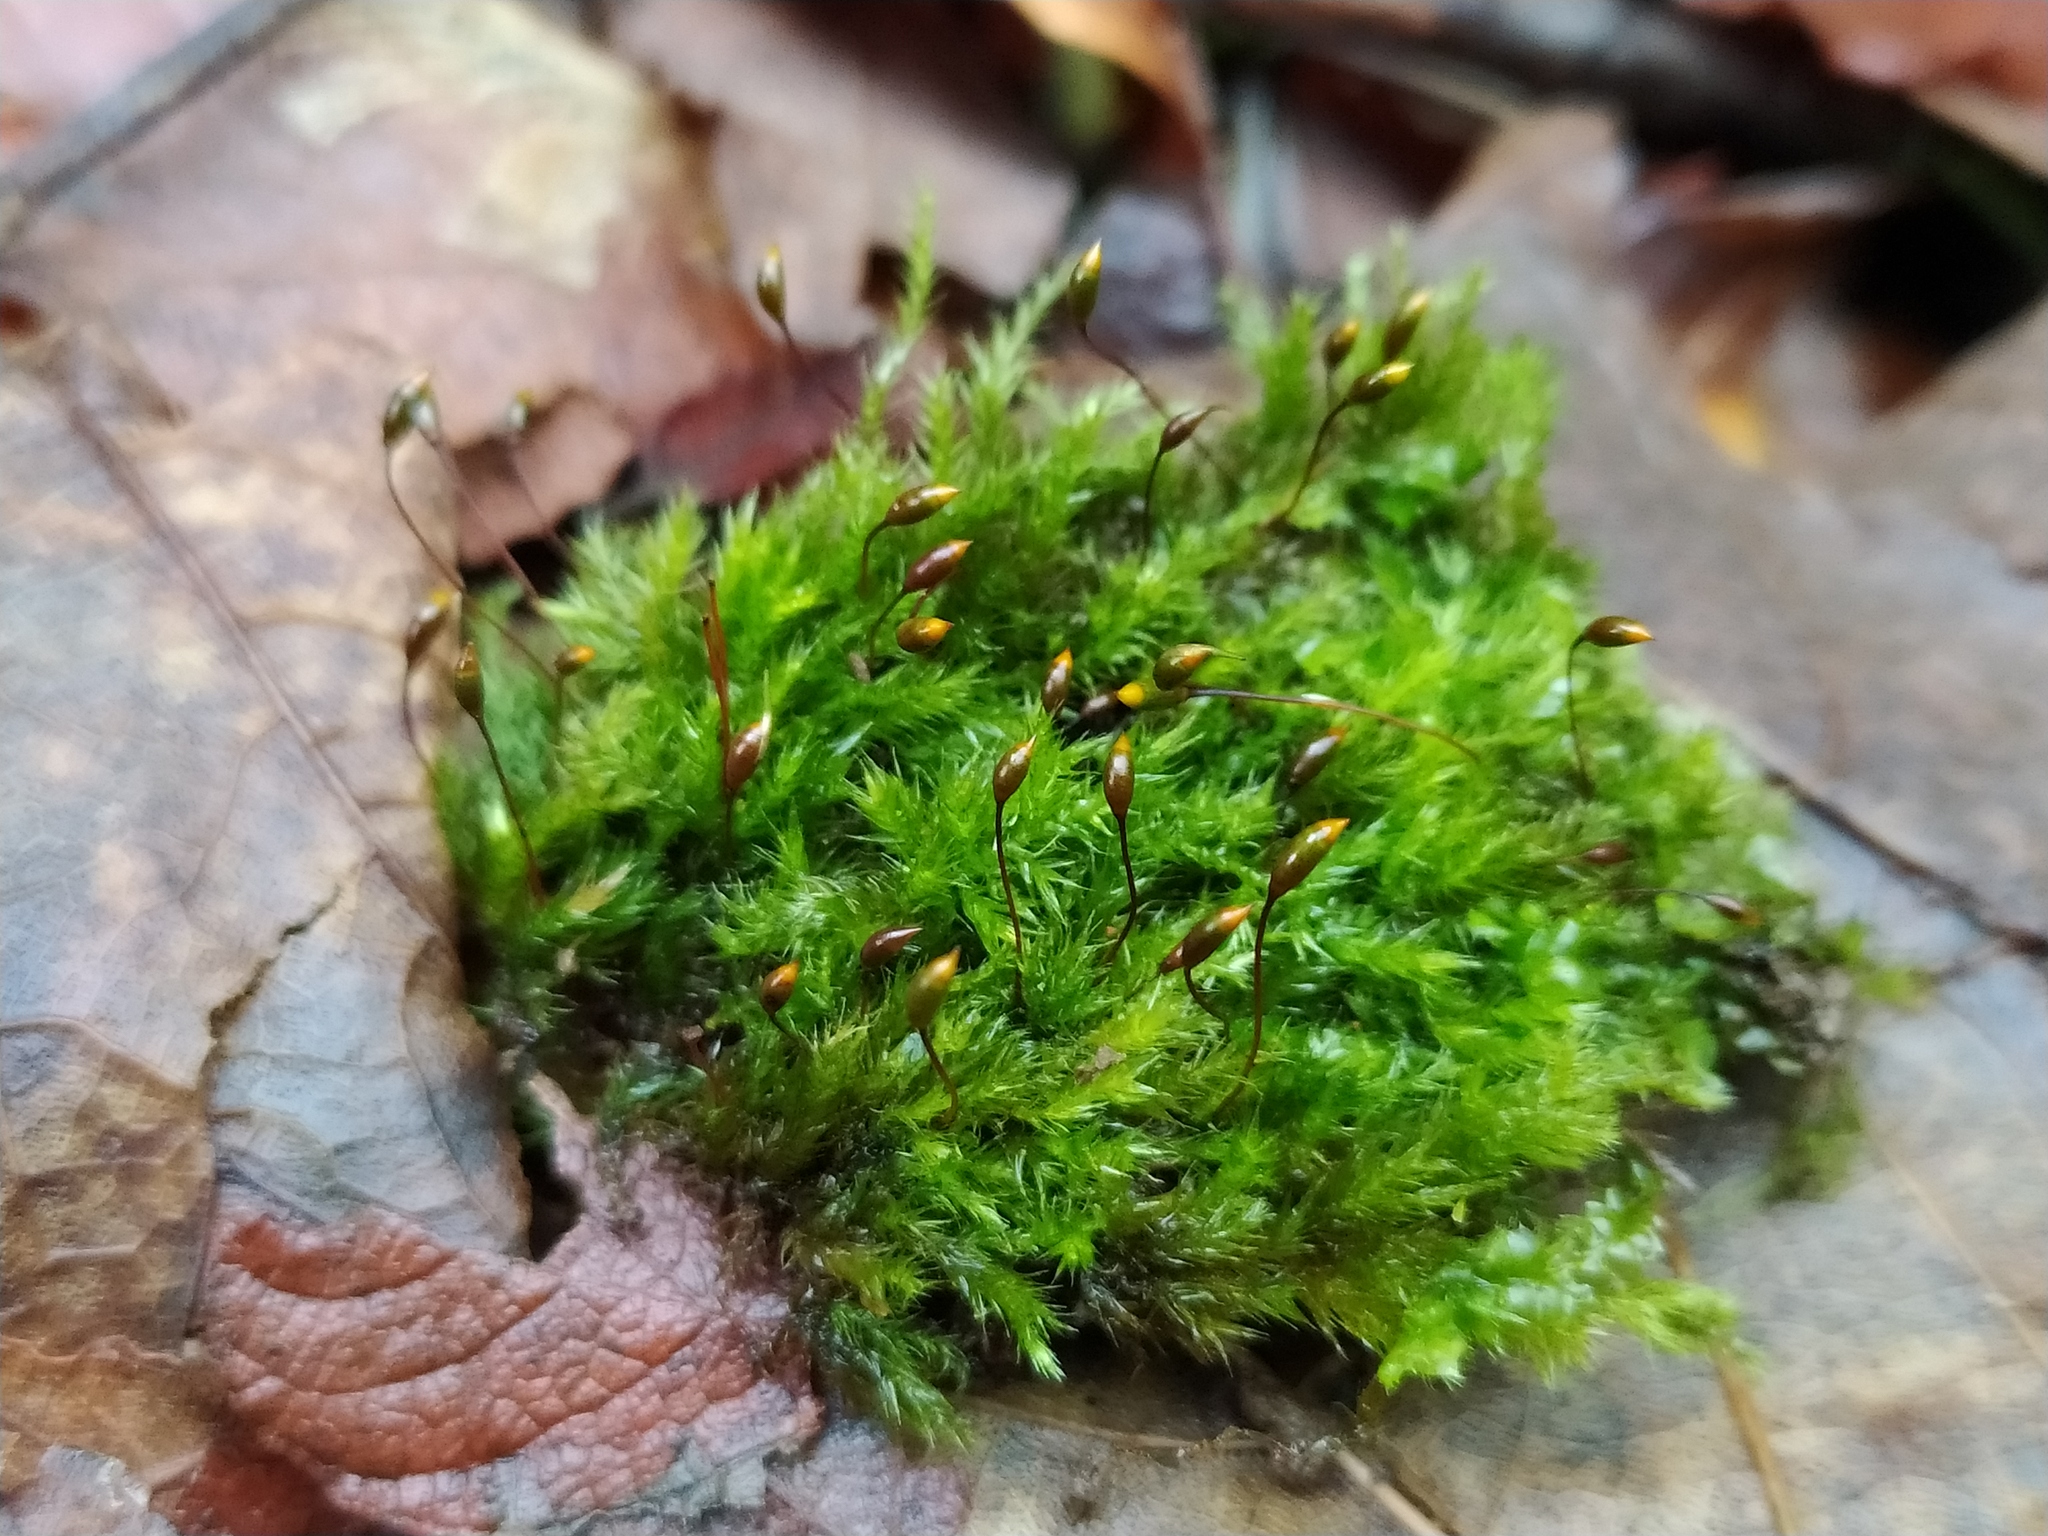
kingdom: Plantae
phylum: Bryophyta
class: Bryopsida
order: Hypnales
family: Brachytheciaceae
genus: Sciuro-hypnum
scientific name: Sciuro-hypnum plumosum
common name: Rusty feather-moss
